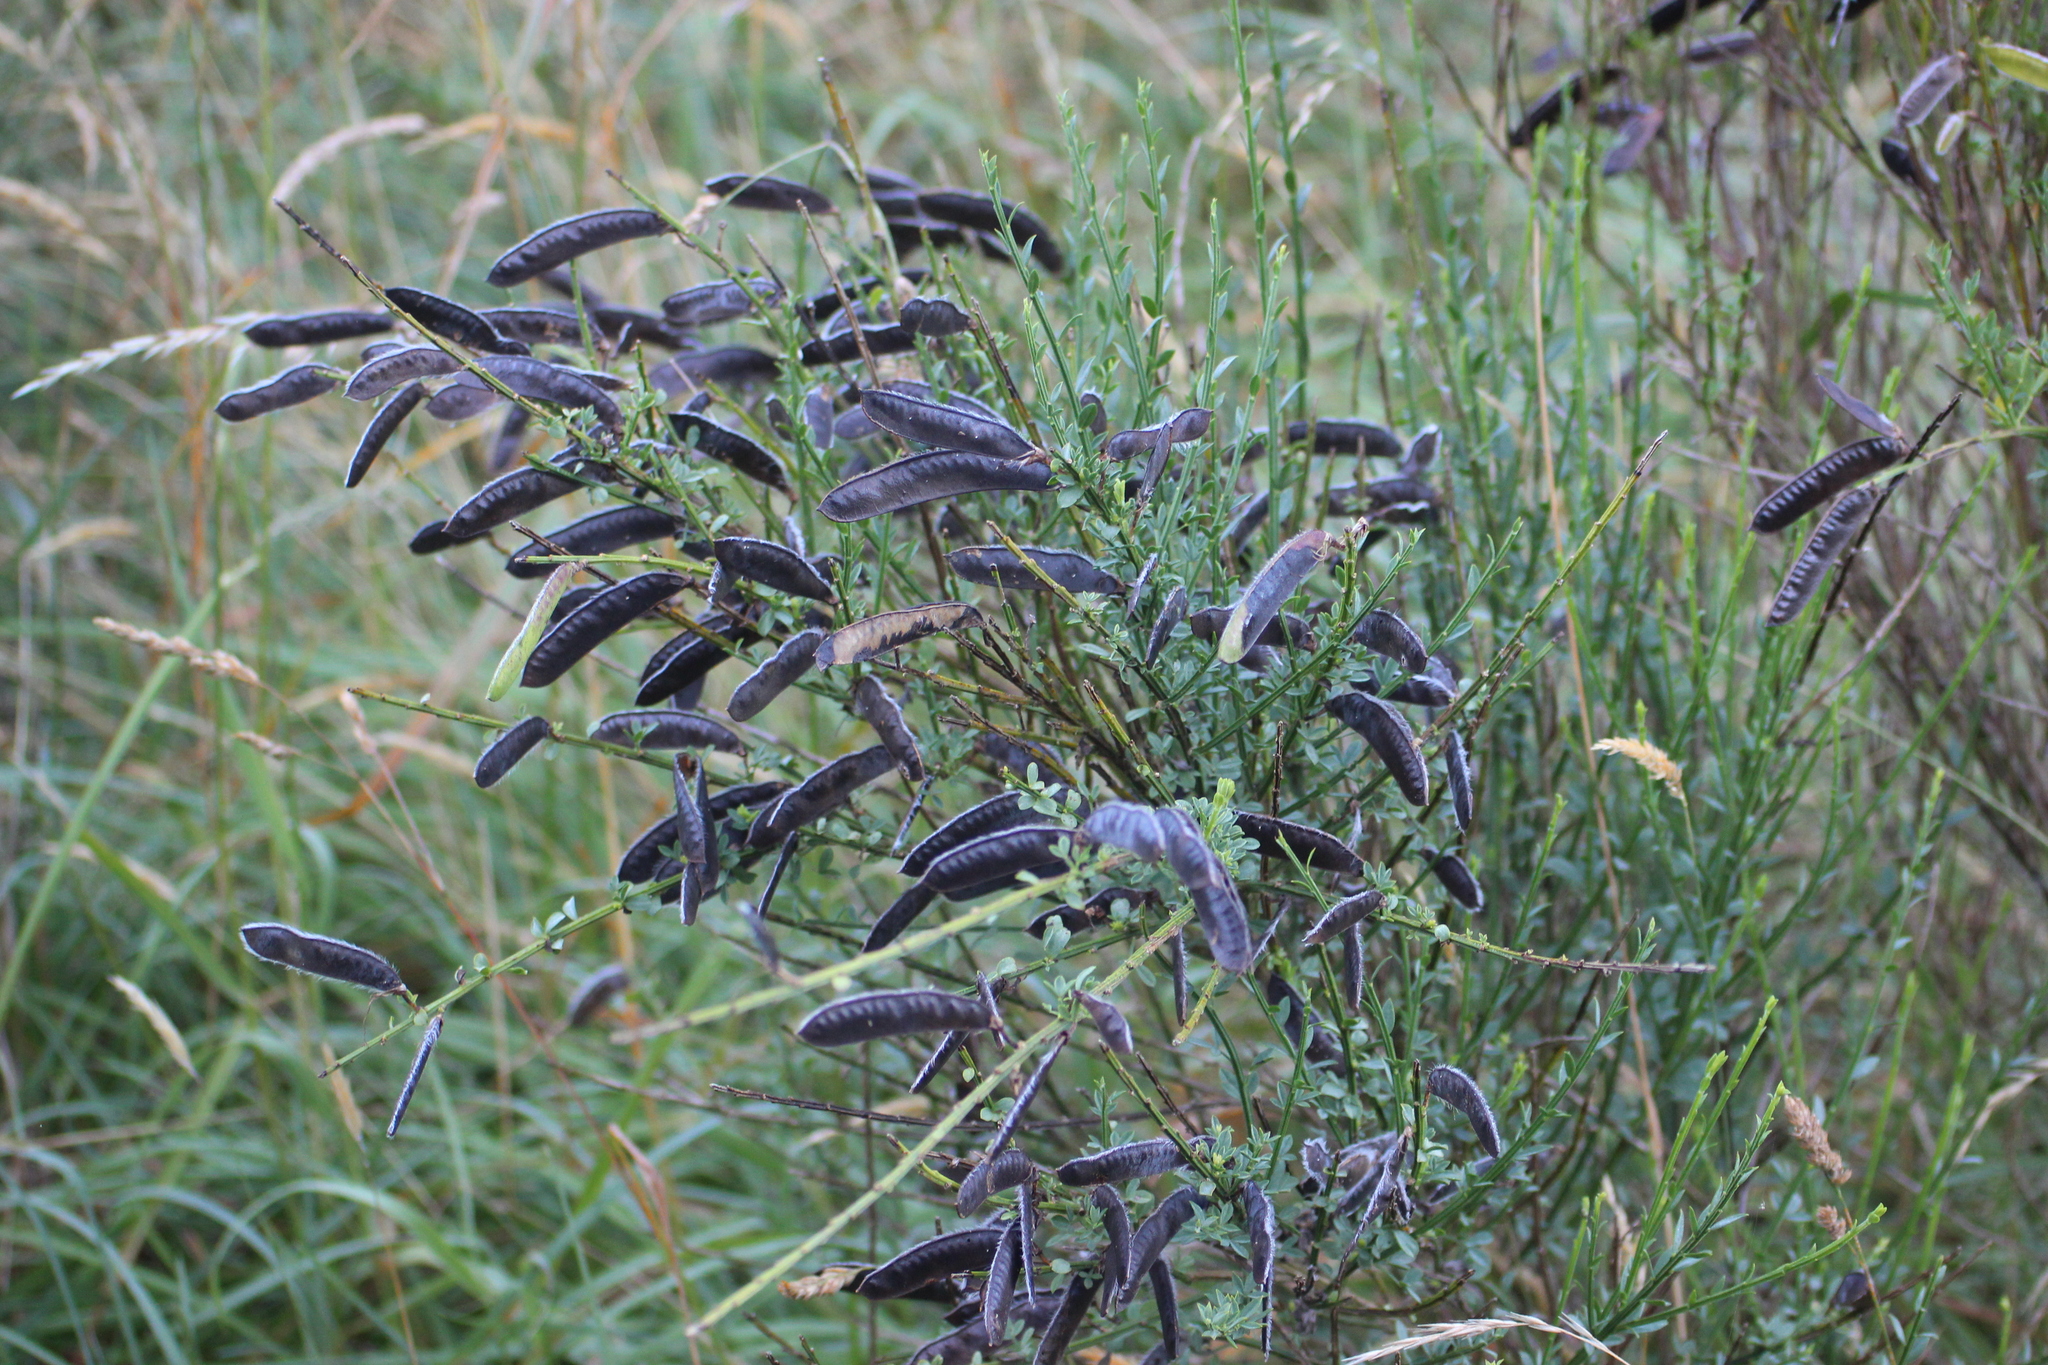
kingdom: Plantae
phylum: Tracheophyta
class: Magnoliopsida
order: Fabales
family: Fabaceae
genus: Cytisus
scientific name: Cytisus scoparius
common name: Scotch broom
